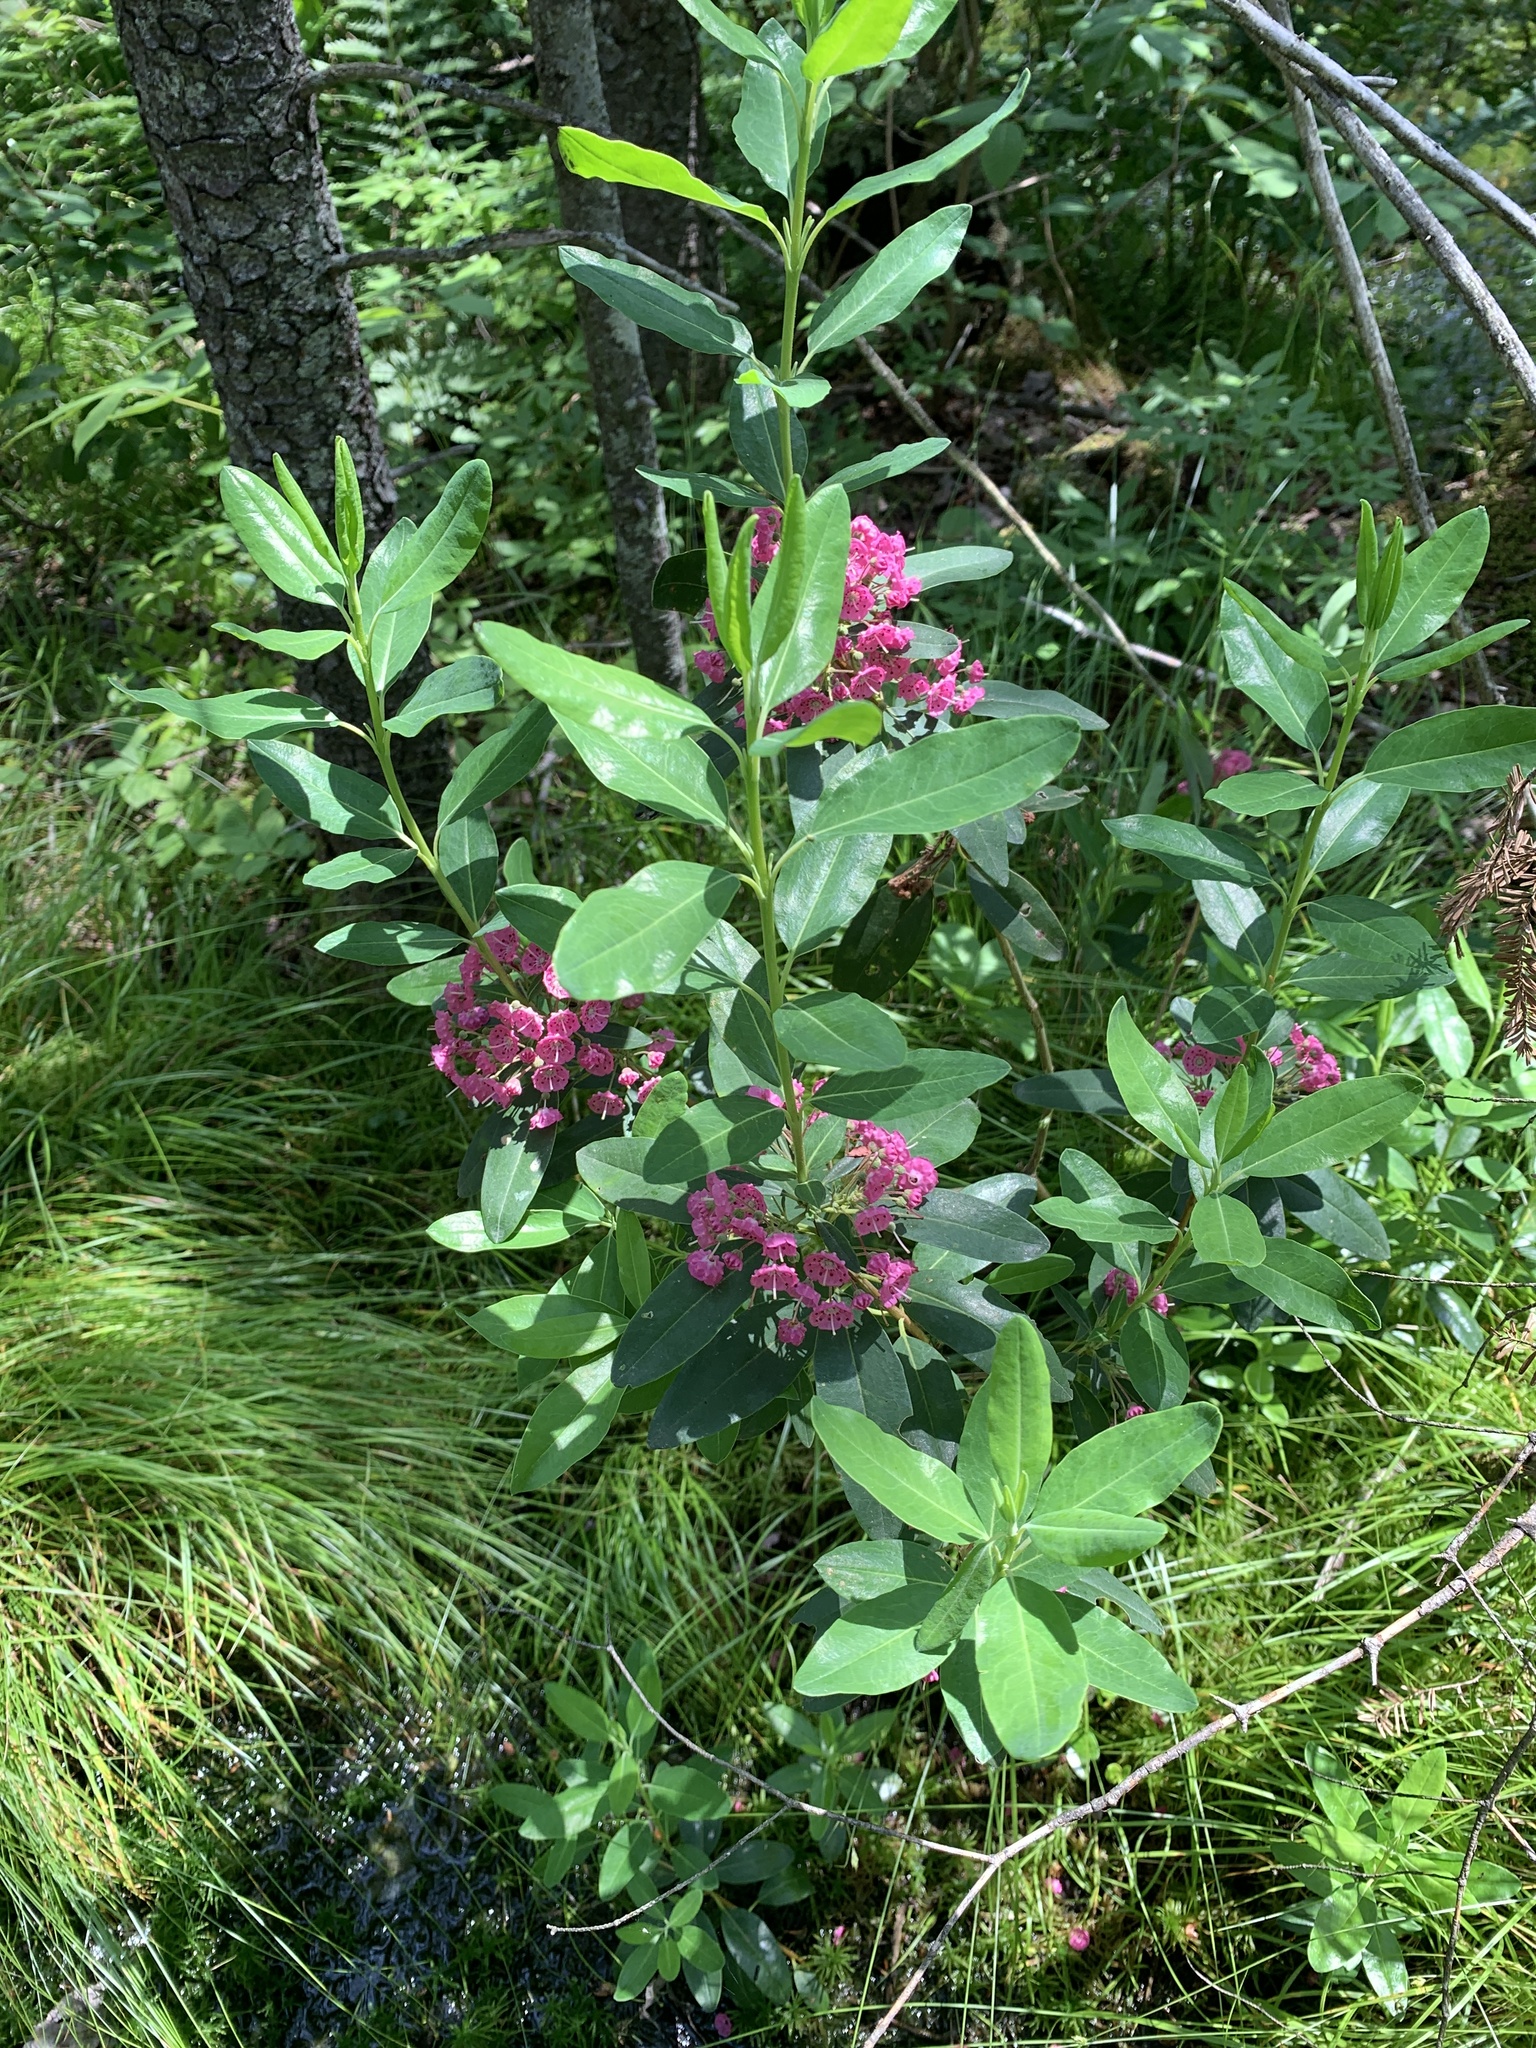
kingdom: Plantae
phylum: Tracheophyta
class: Magnoliopsida
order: Ericales
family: Ericaceae
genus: Kalmia
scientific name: Kalmia angustifolia
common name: Sheep-laurel
